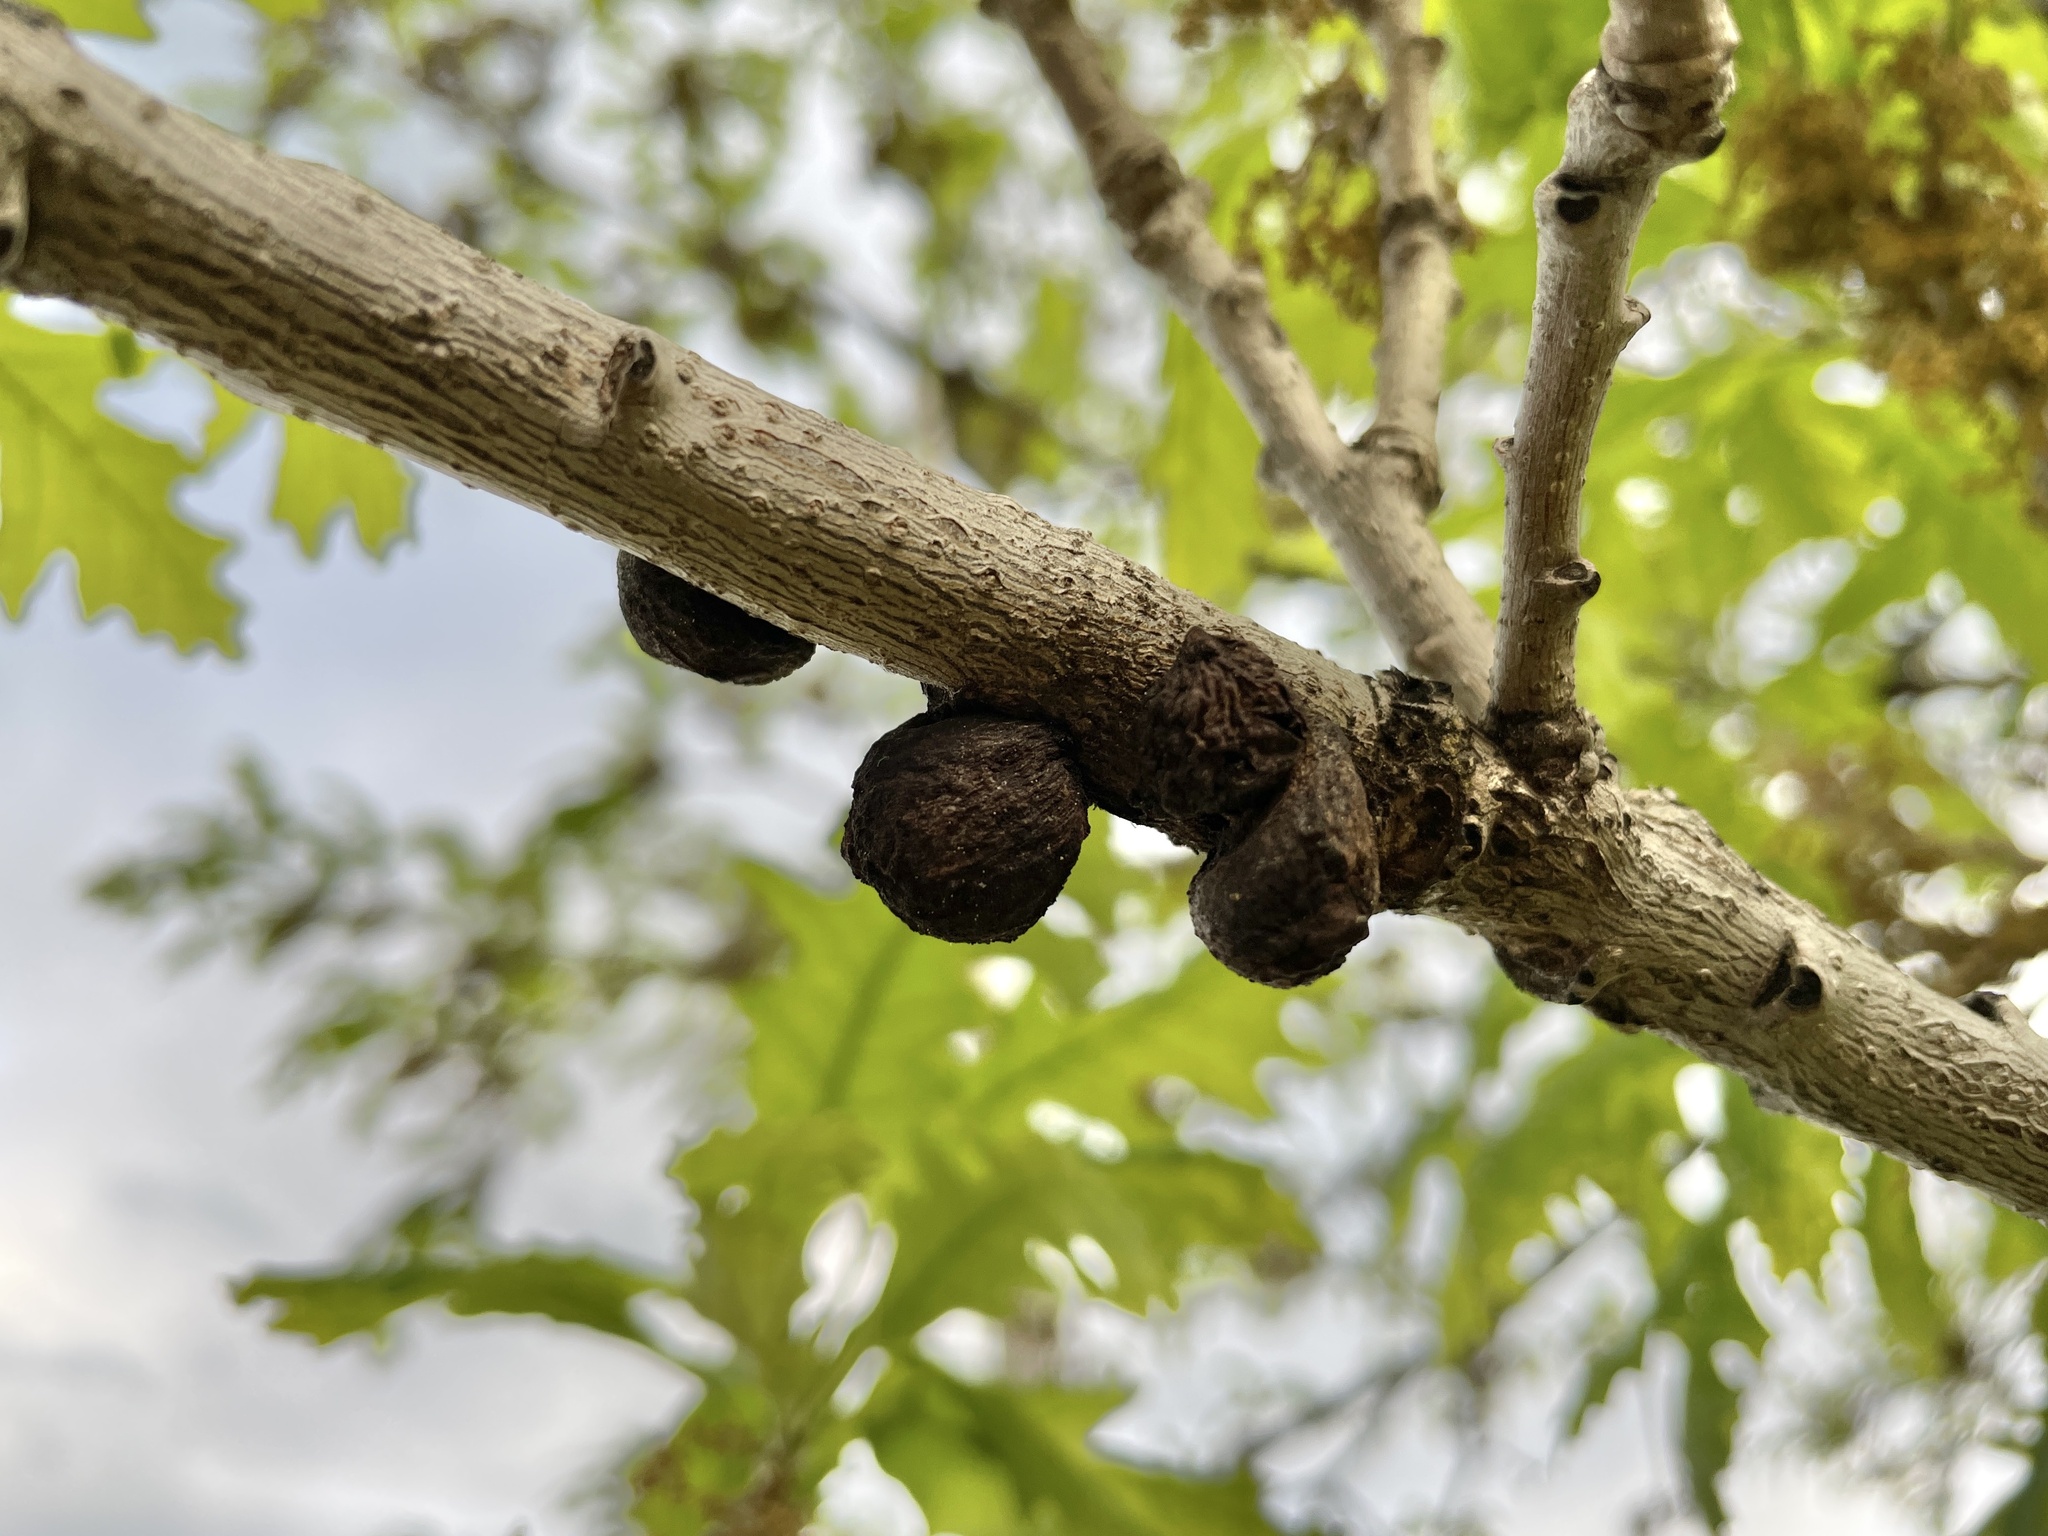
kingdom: Animalia
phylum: Arthropoda
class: Insecta
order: Hymenoptera
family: Cynipidae
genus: Disholcaspis
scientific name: Disholcaspis
